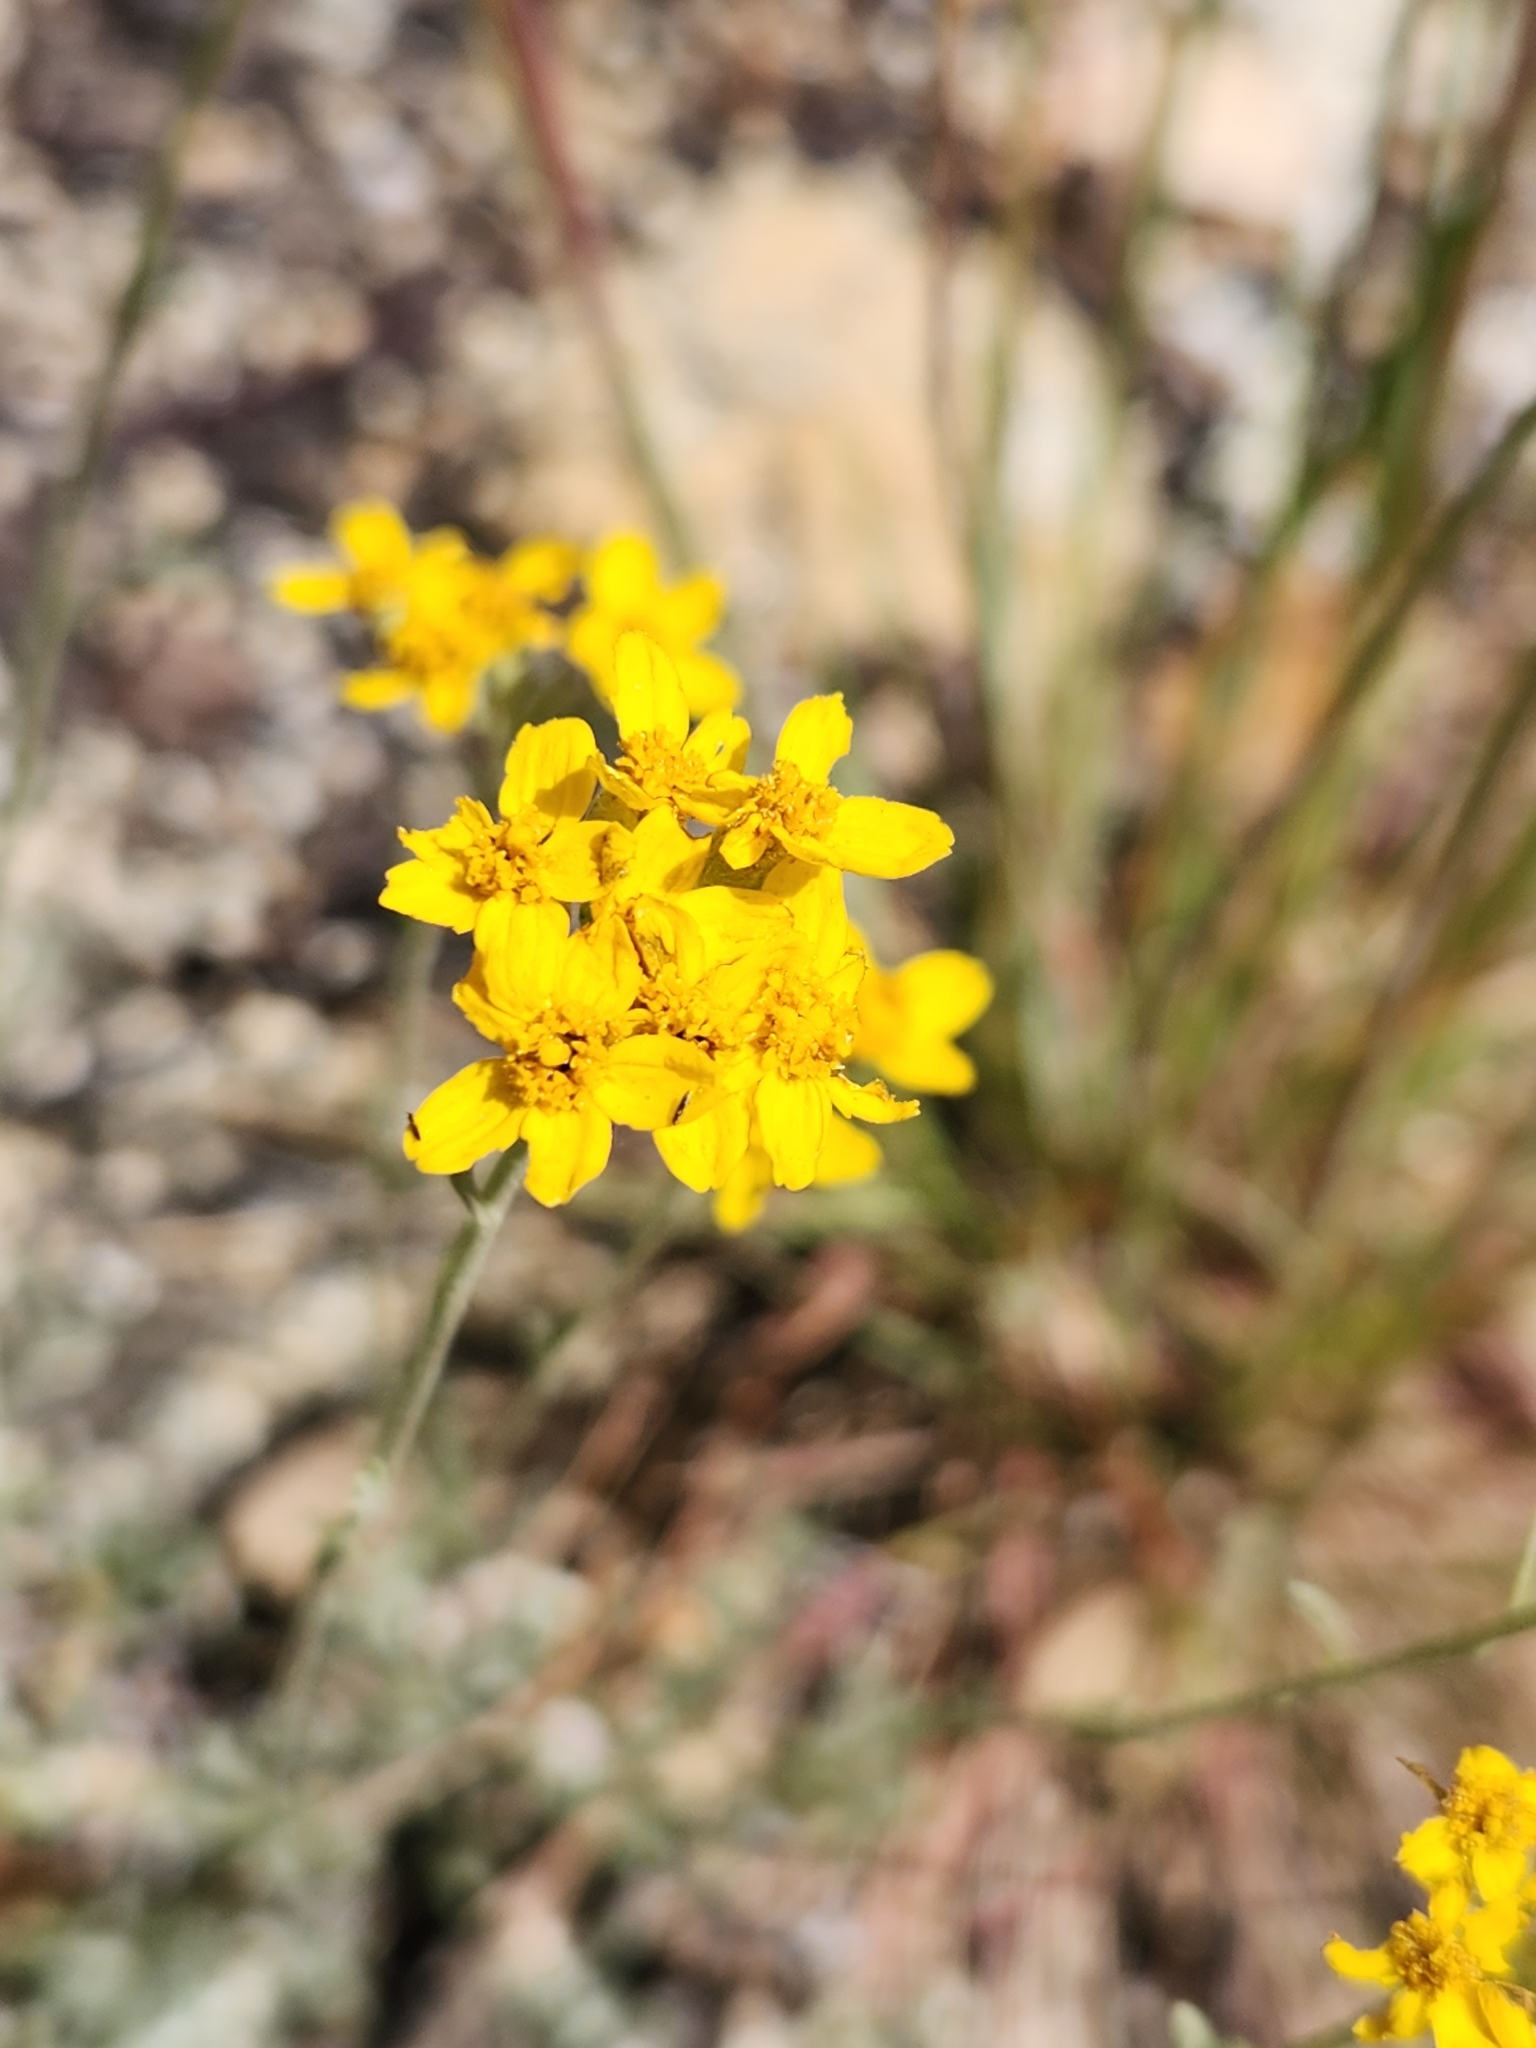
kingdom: Plantae
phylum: Tracheophyta
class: Magnoliopsida
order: Asterales
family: Asteraceae
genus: Eriophyllum
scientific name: Eriophyllum confertiflorum
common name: Golden-yarrow
